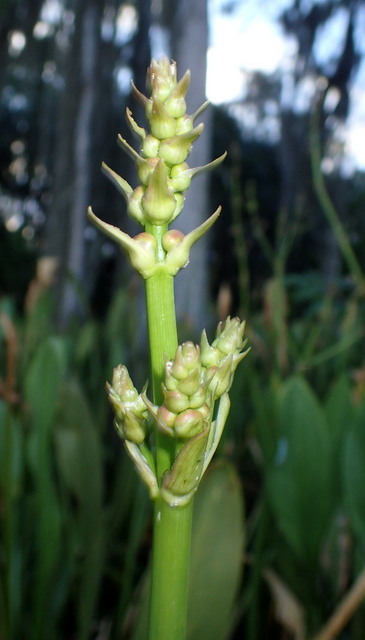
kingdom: Plantae
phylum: Tracheophyta
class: Liliopsida
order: Alismatales
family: Alismataceae
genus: Sagittaria
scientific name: Sagittaria lancifolia
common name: Lance-leaf arrowhead
